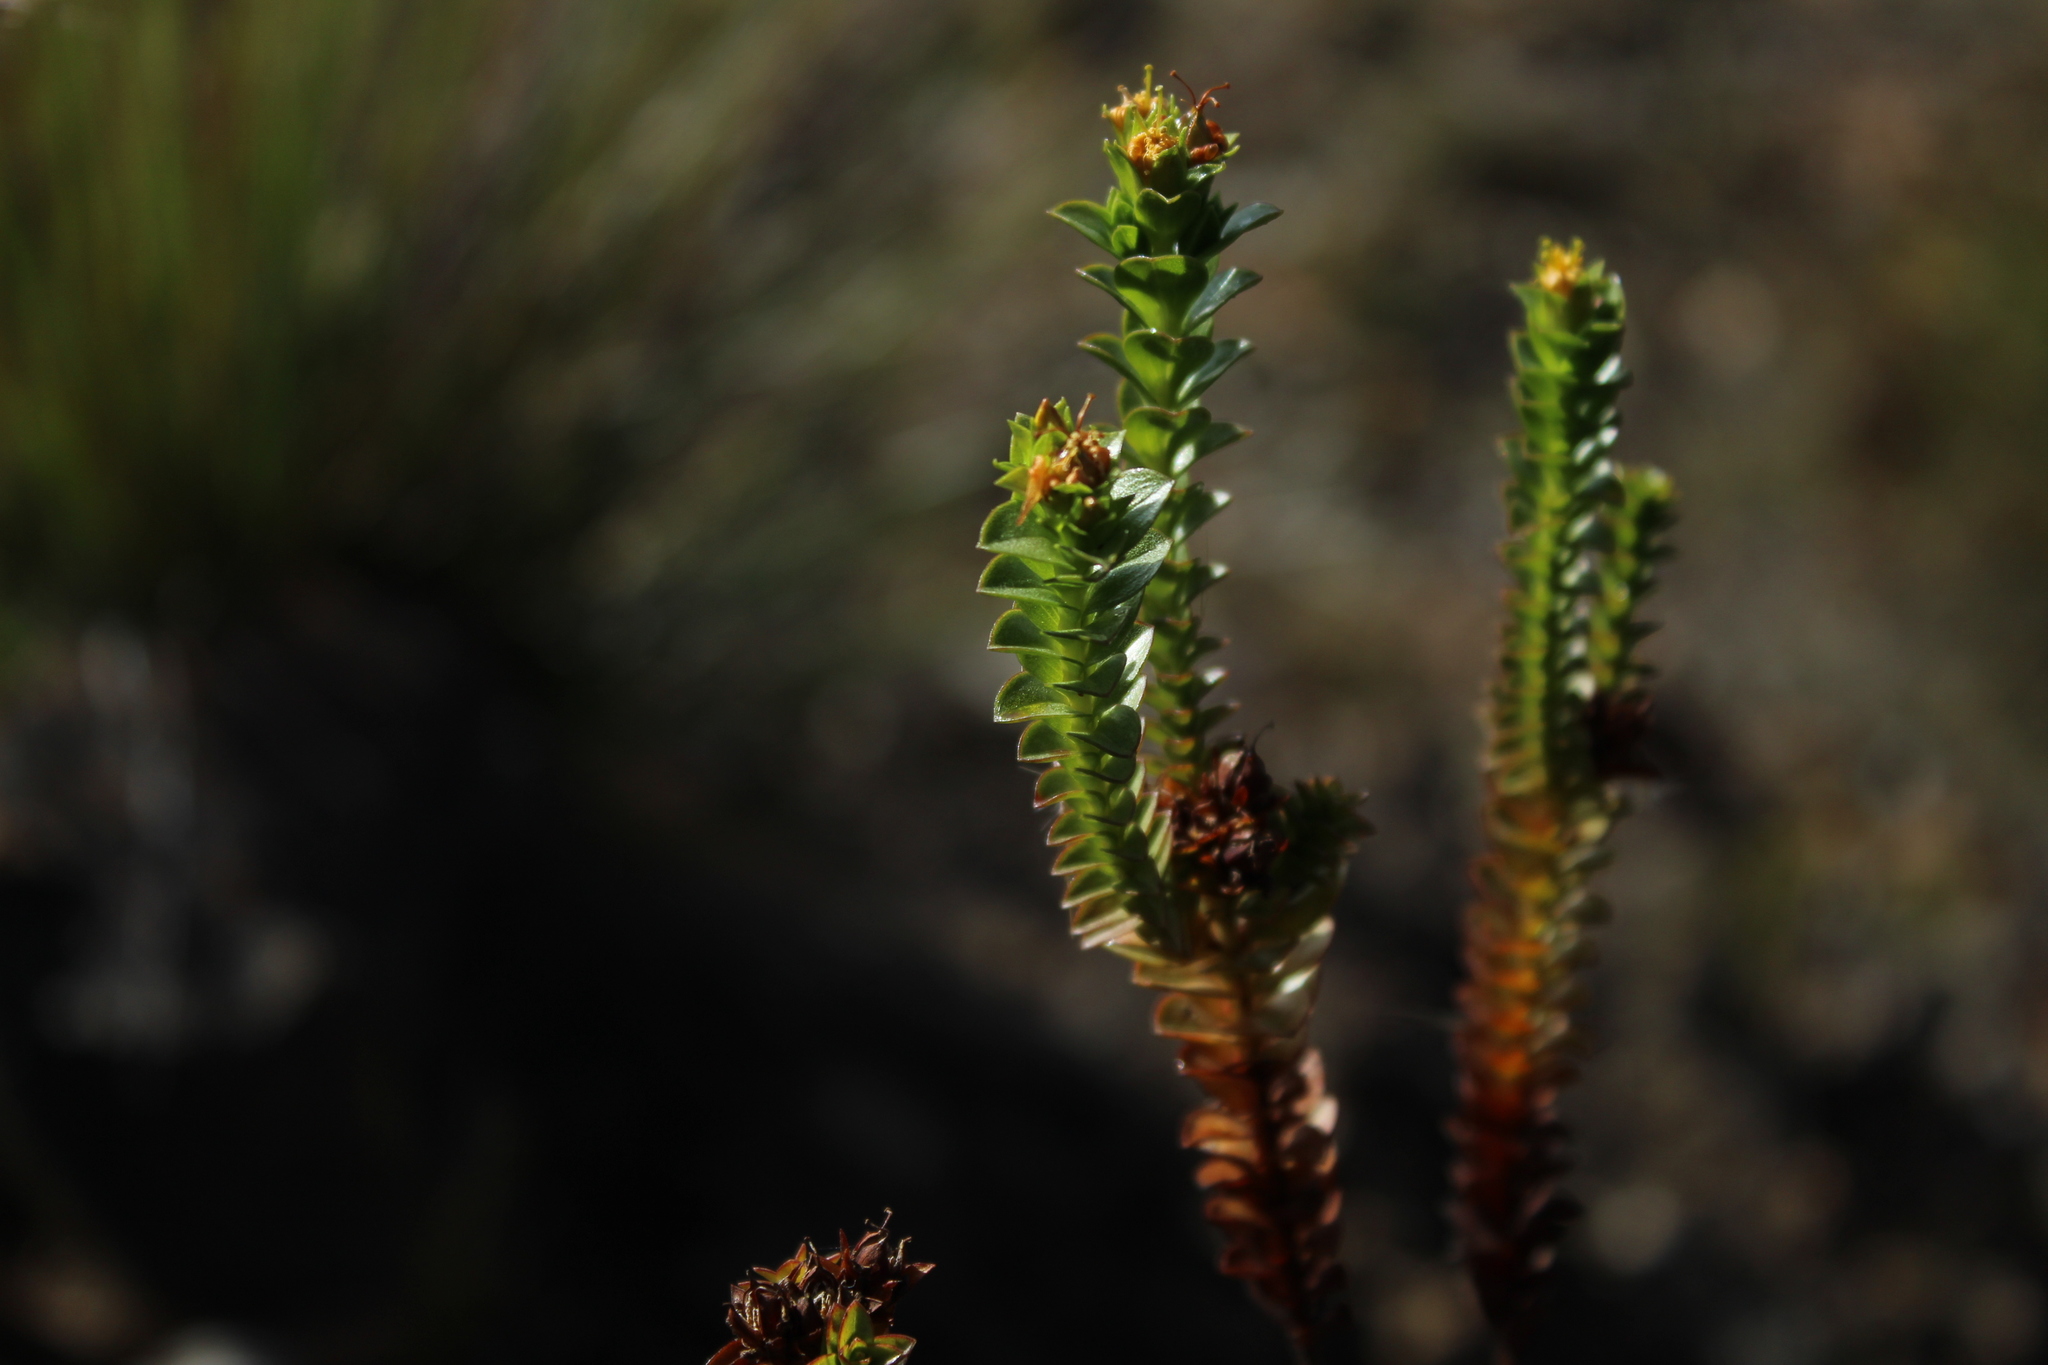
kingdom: Plantae
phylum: Tracheophyta
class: Magnoliopsida
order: Malpighiales
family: Hypericaceae
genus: Hypericum
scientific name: Hypericum mexicanum
